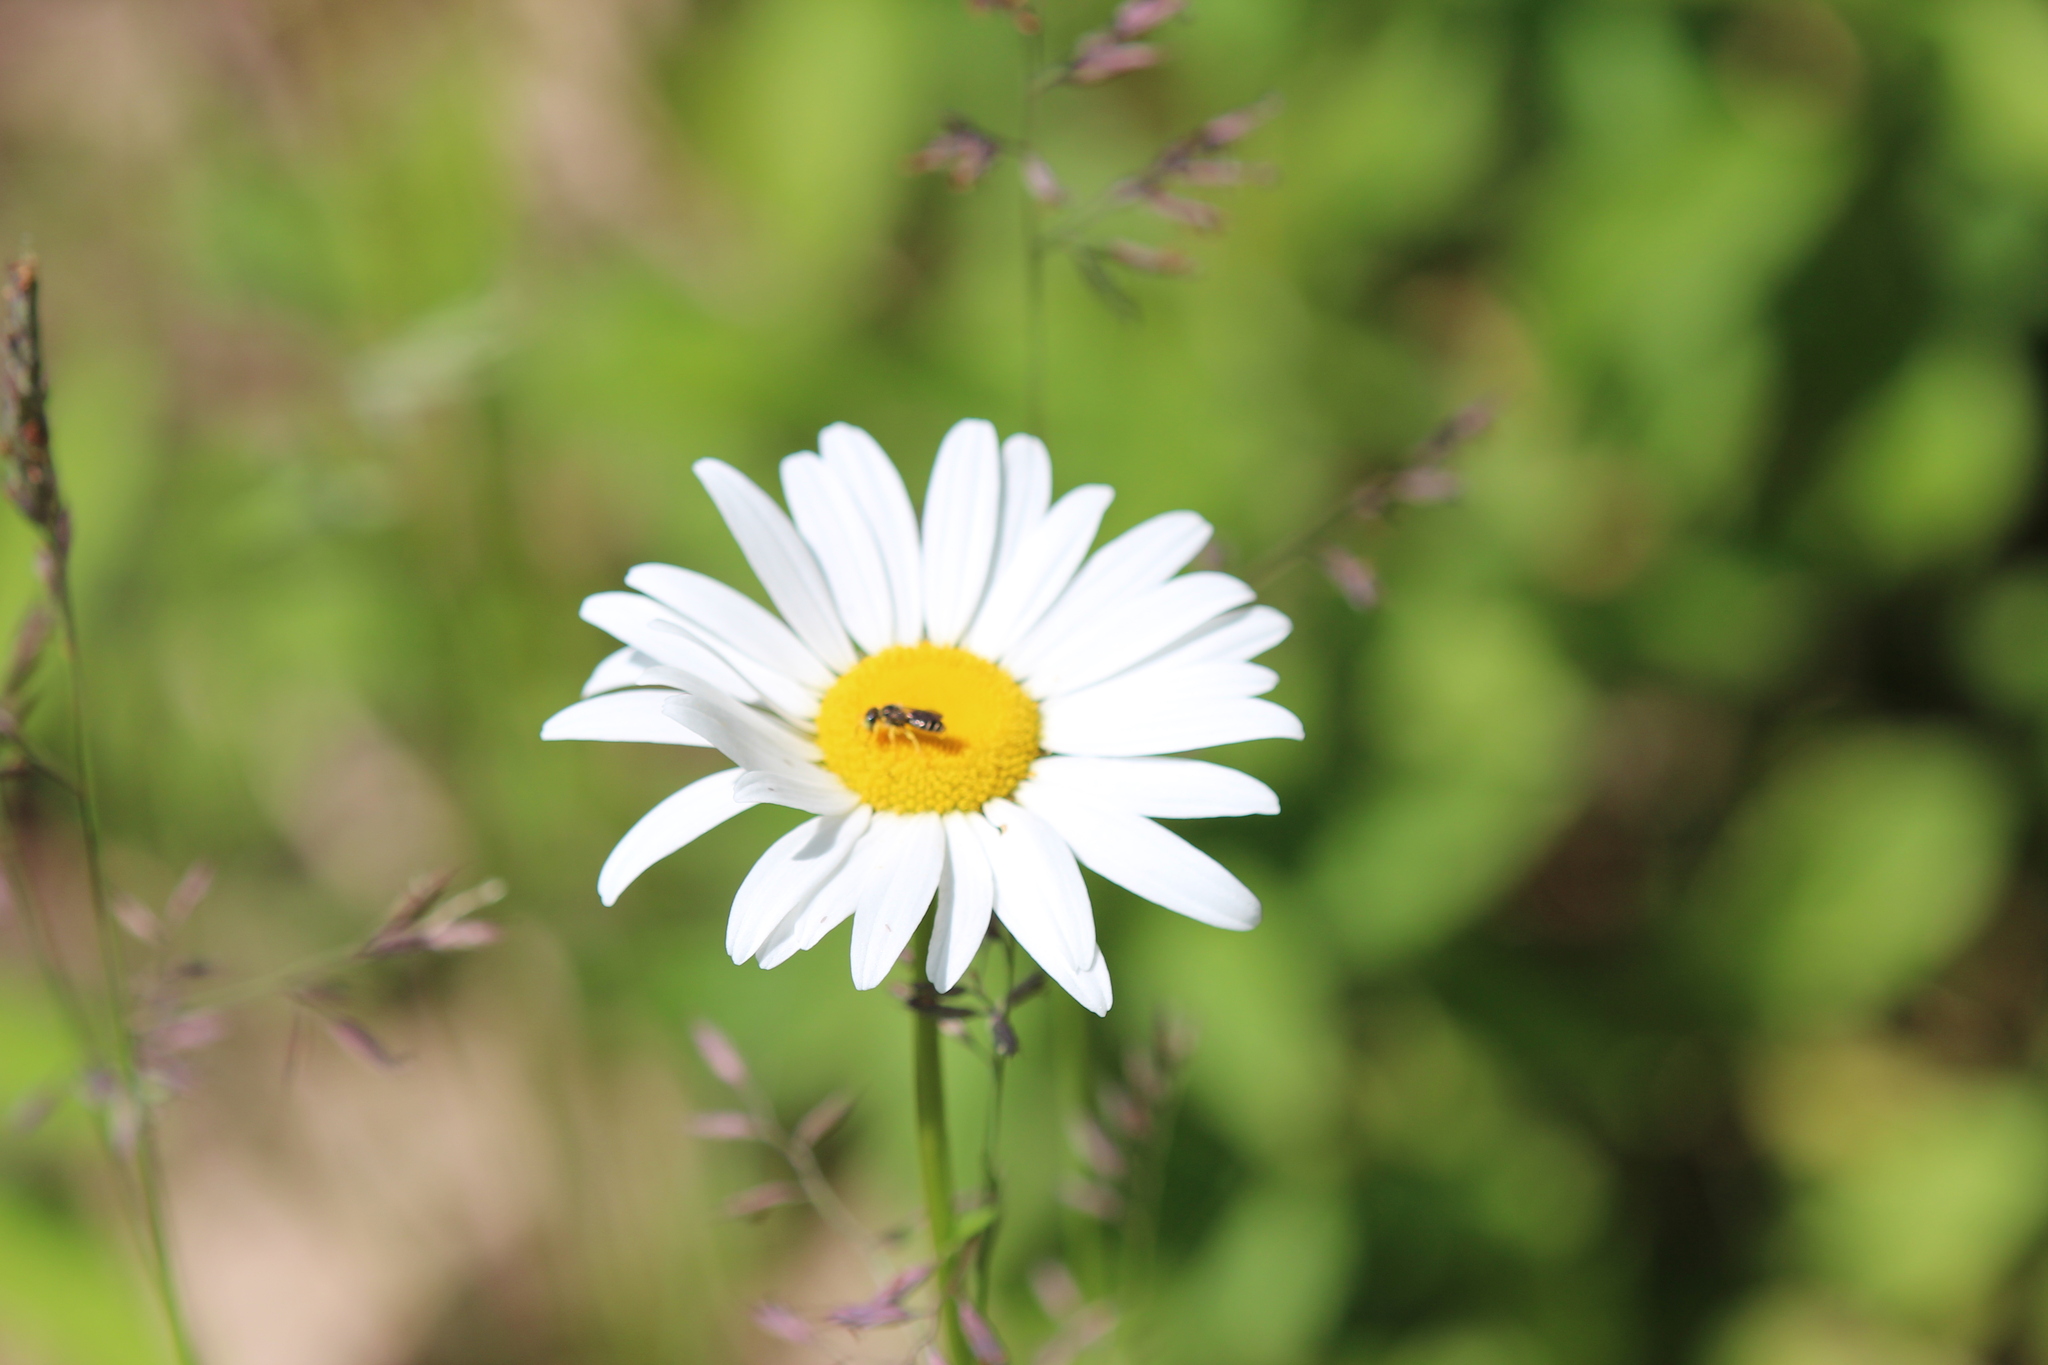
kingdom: Plantae
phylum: Tracheophyta
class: Magnoliopsida
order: Asterales
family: Asteraceae
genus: Leucanthemum
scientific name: Leucanthemum vulgare
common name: Oxeye daisy
